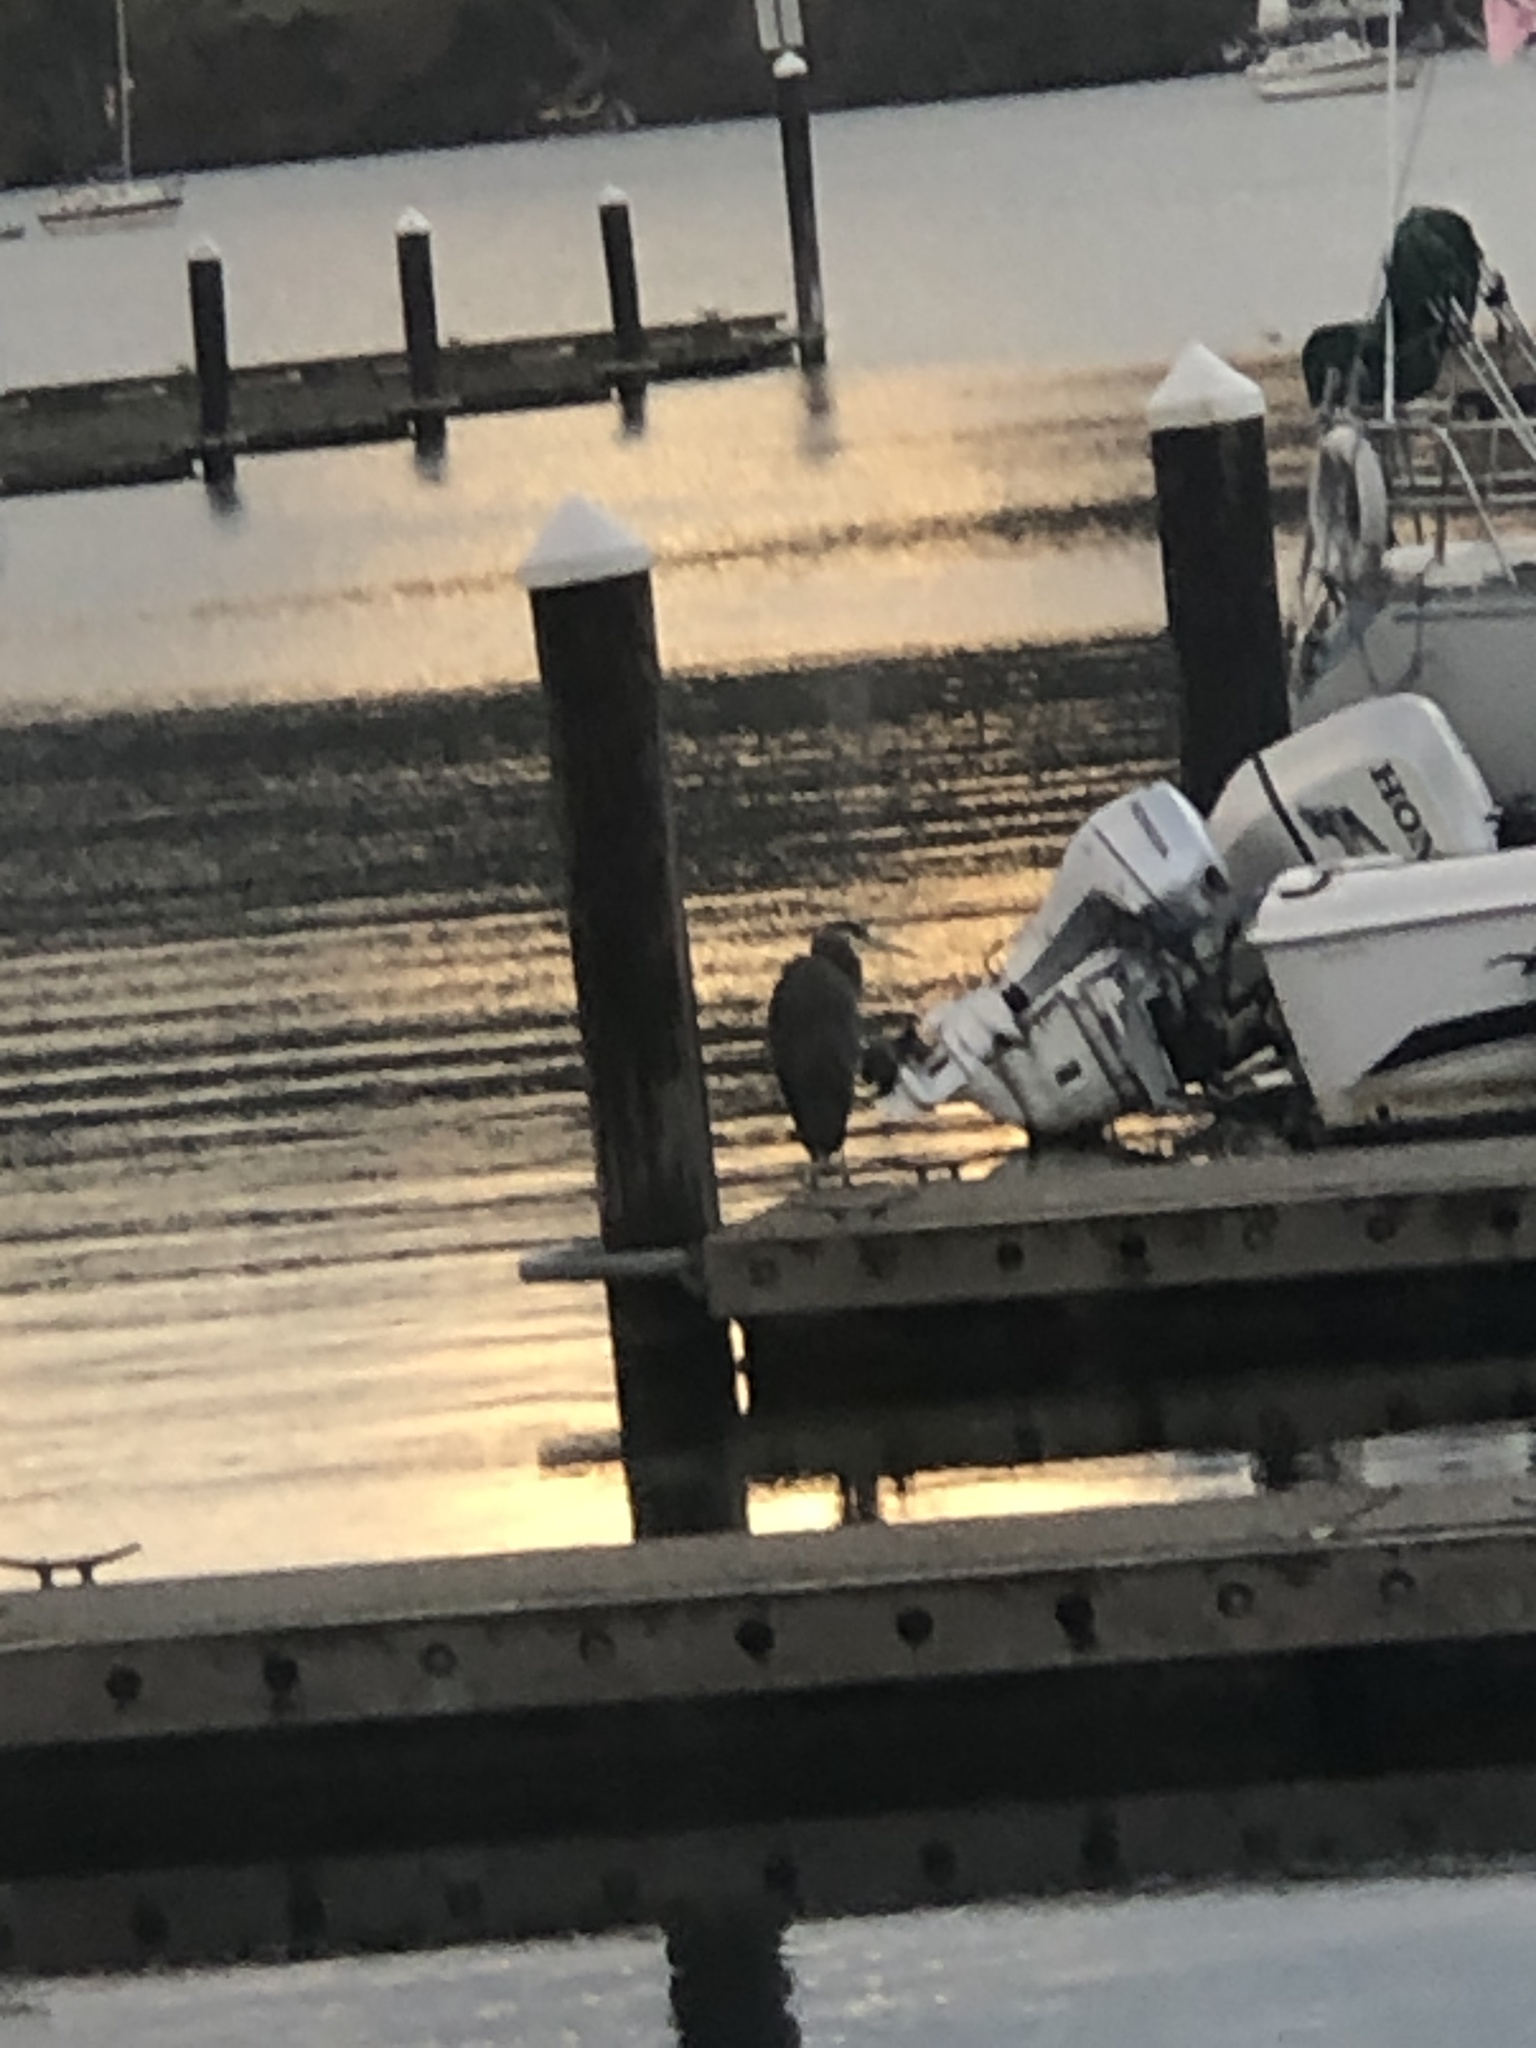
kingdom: Animalia
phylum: Chordata
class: Aves
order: Pelecaniformes
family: Ardeidae
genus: Ardea
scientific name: Ardea herodias
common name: Great blue heron
